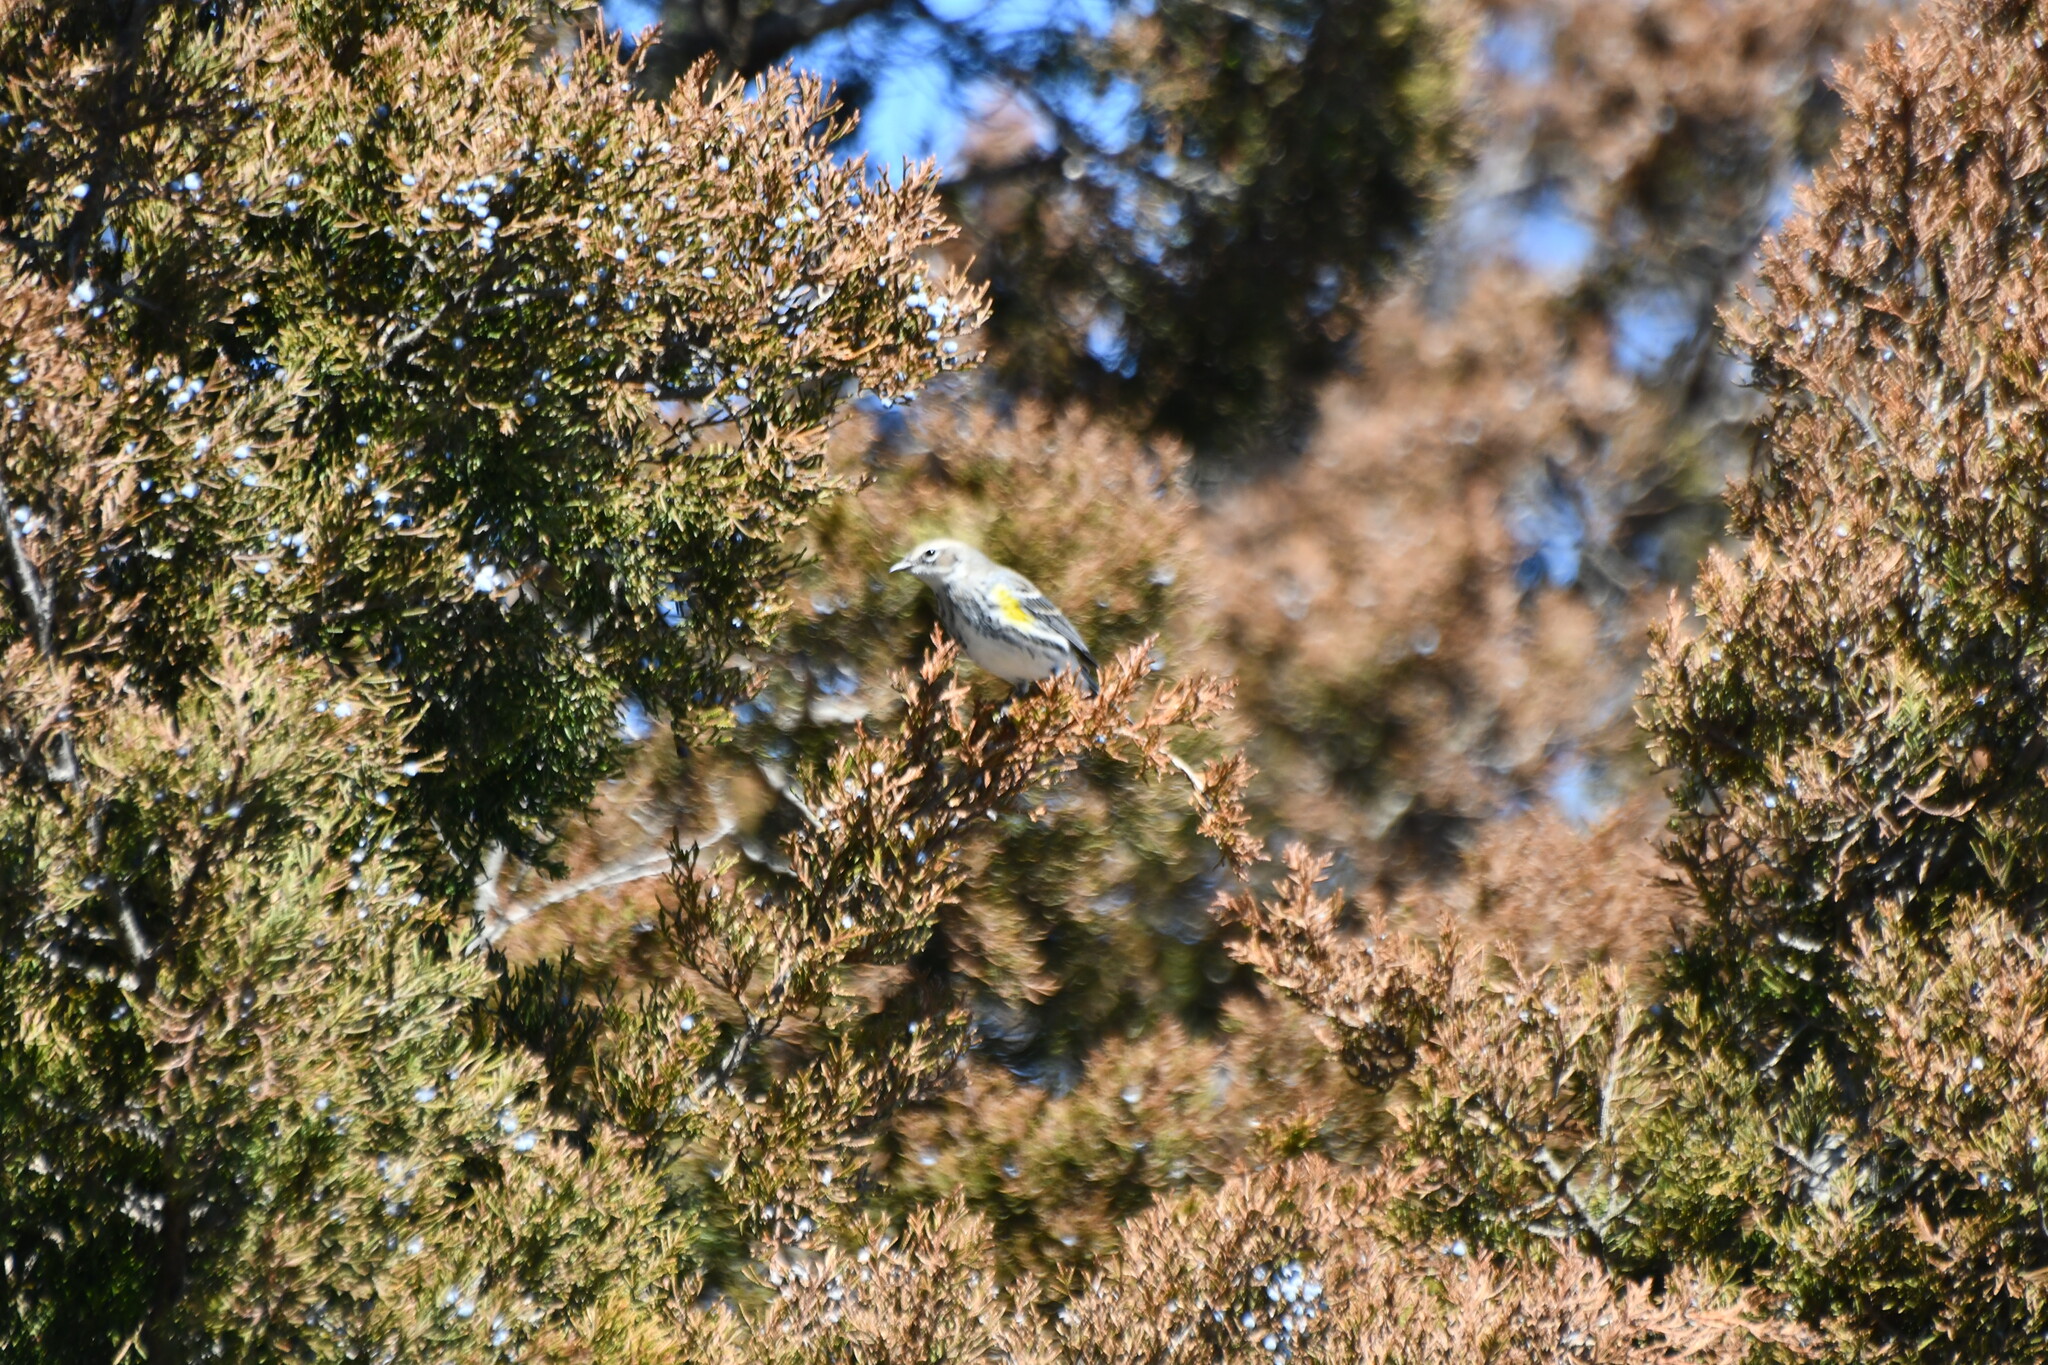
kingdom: Animalia
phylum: Chordata
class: Aves
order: Passeriformes
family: Parulidae
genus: Setophaga
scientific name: Setophaga coronata
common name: Myrtle warbler
